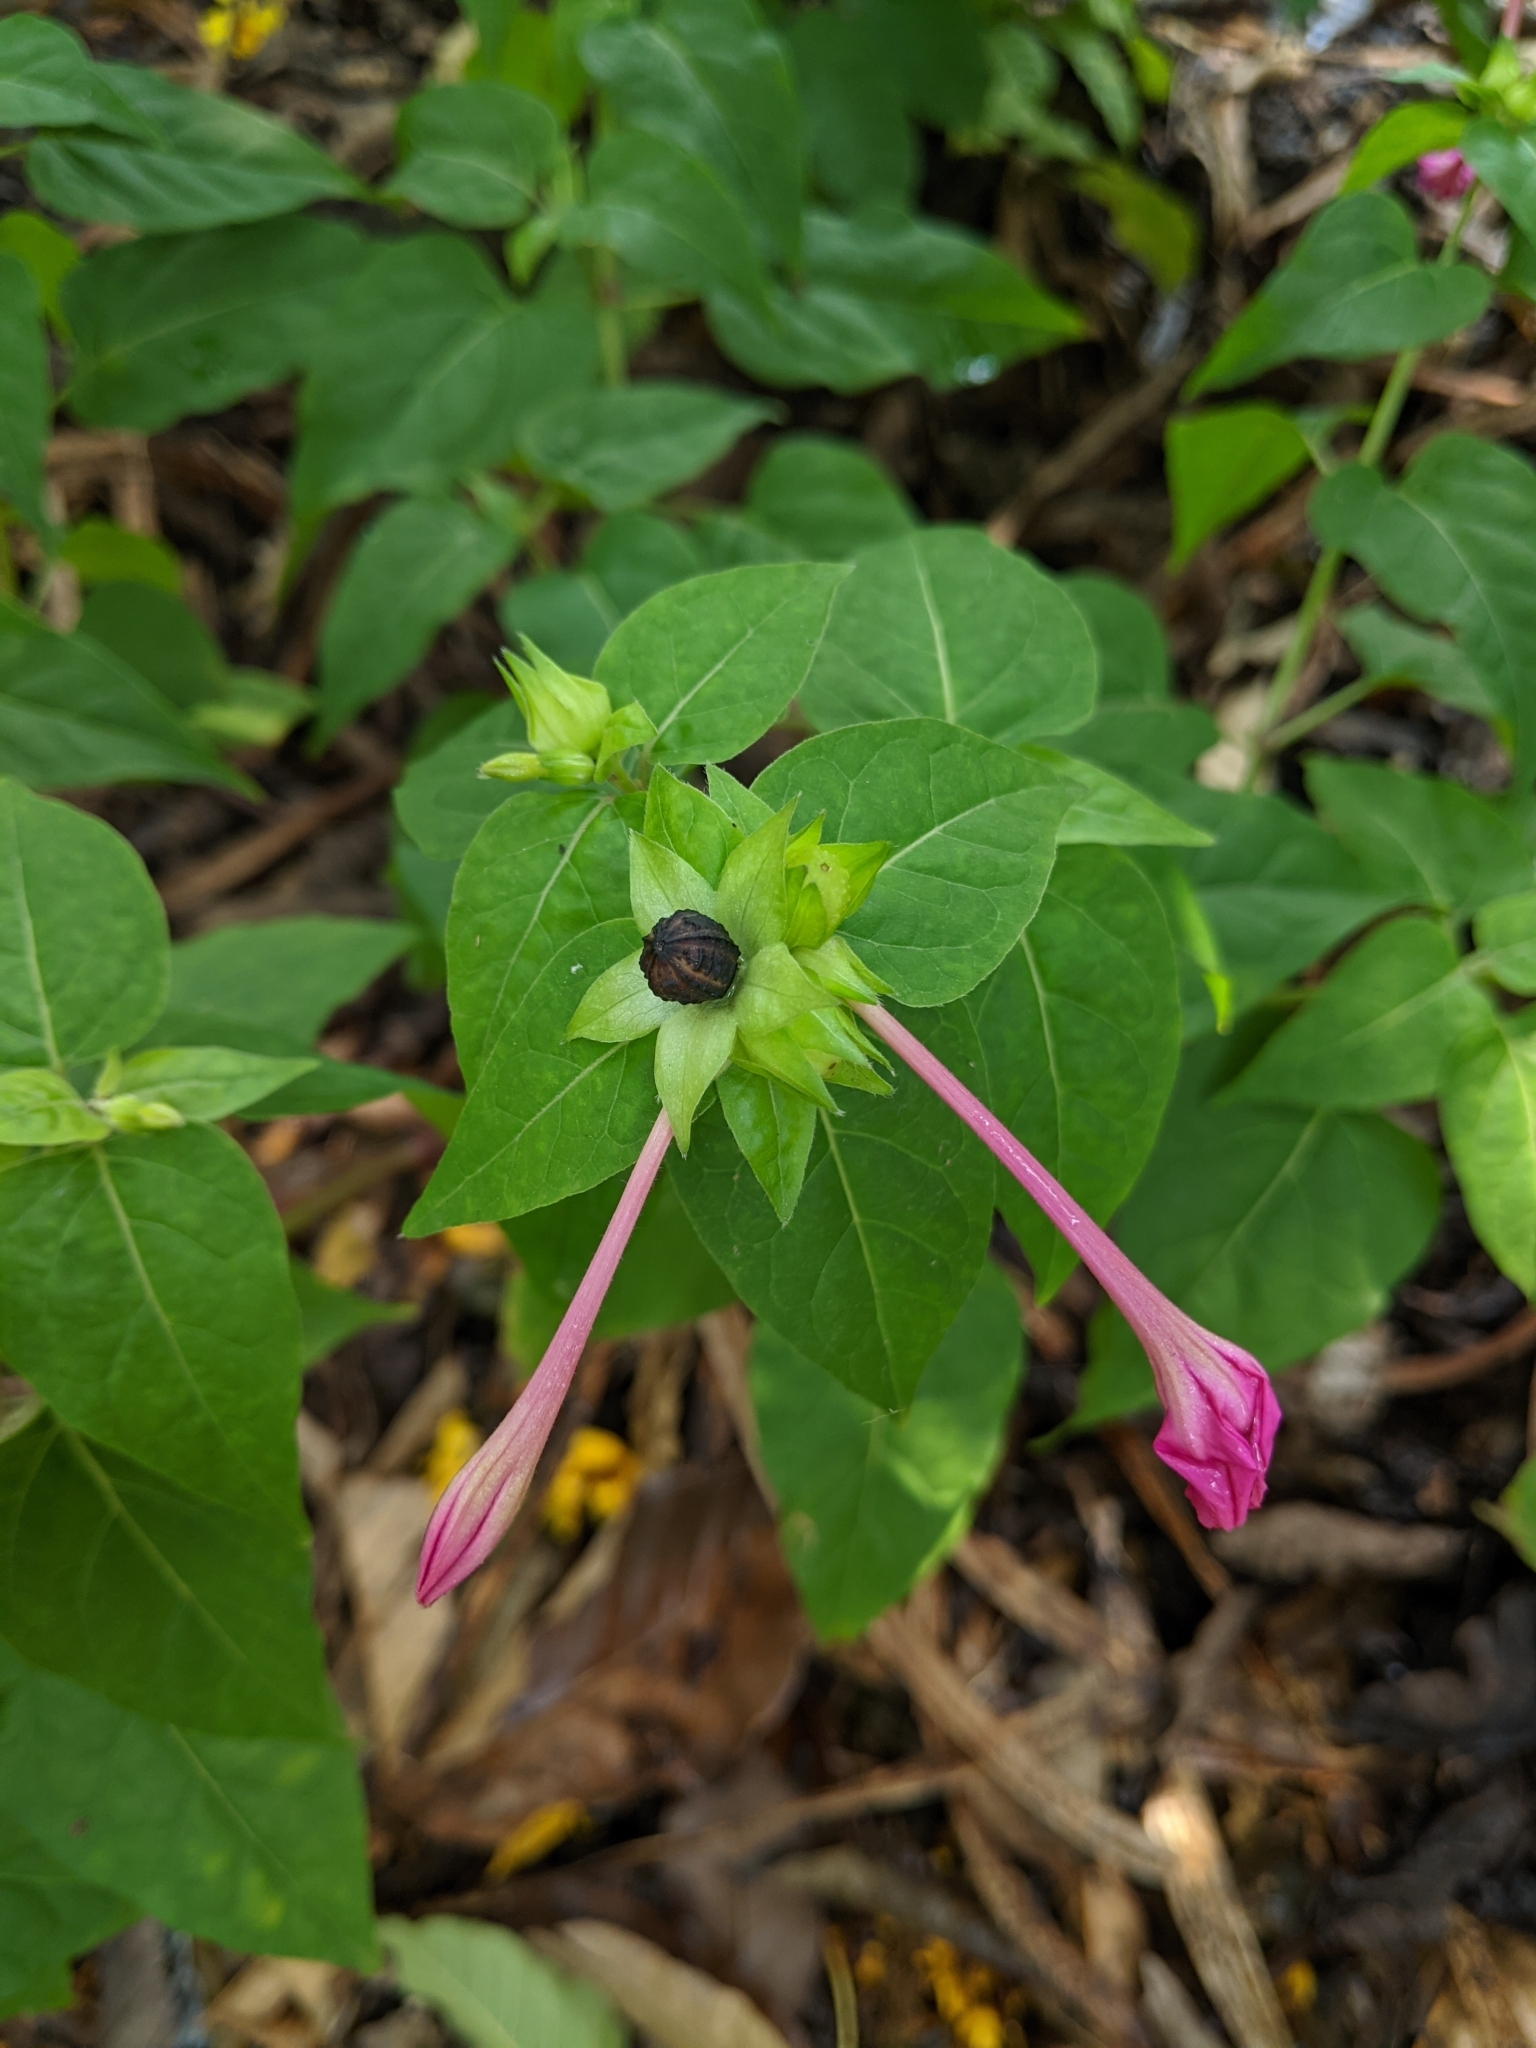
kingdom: Plantae
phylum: Tracheophyta
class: Magnoliopsida
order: Caryophyllales
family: Nyctaginaceae
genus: Mirabilis
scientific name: Mirabilis jalapa
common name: Marvel-of-peru
